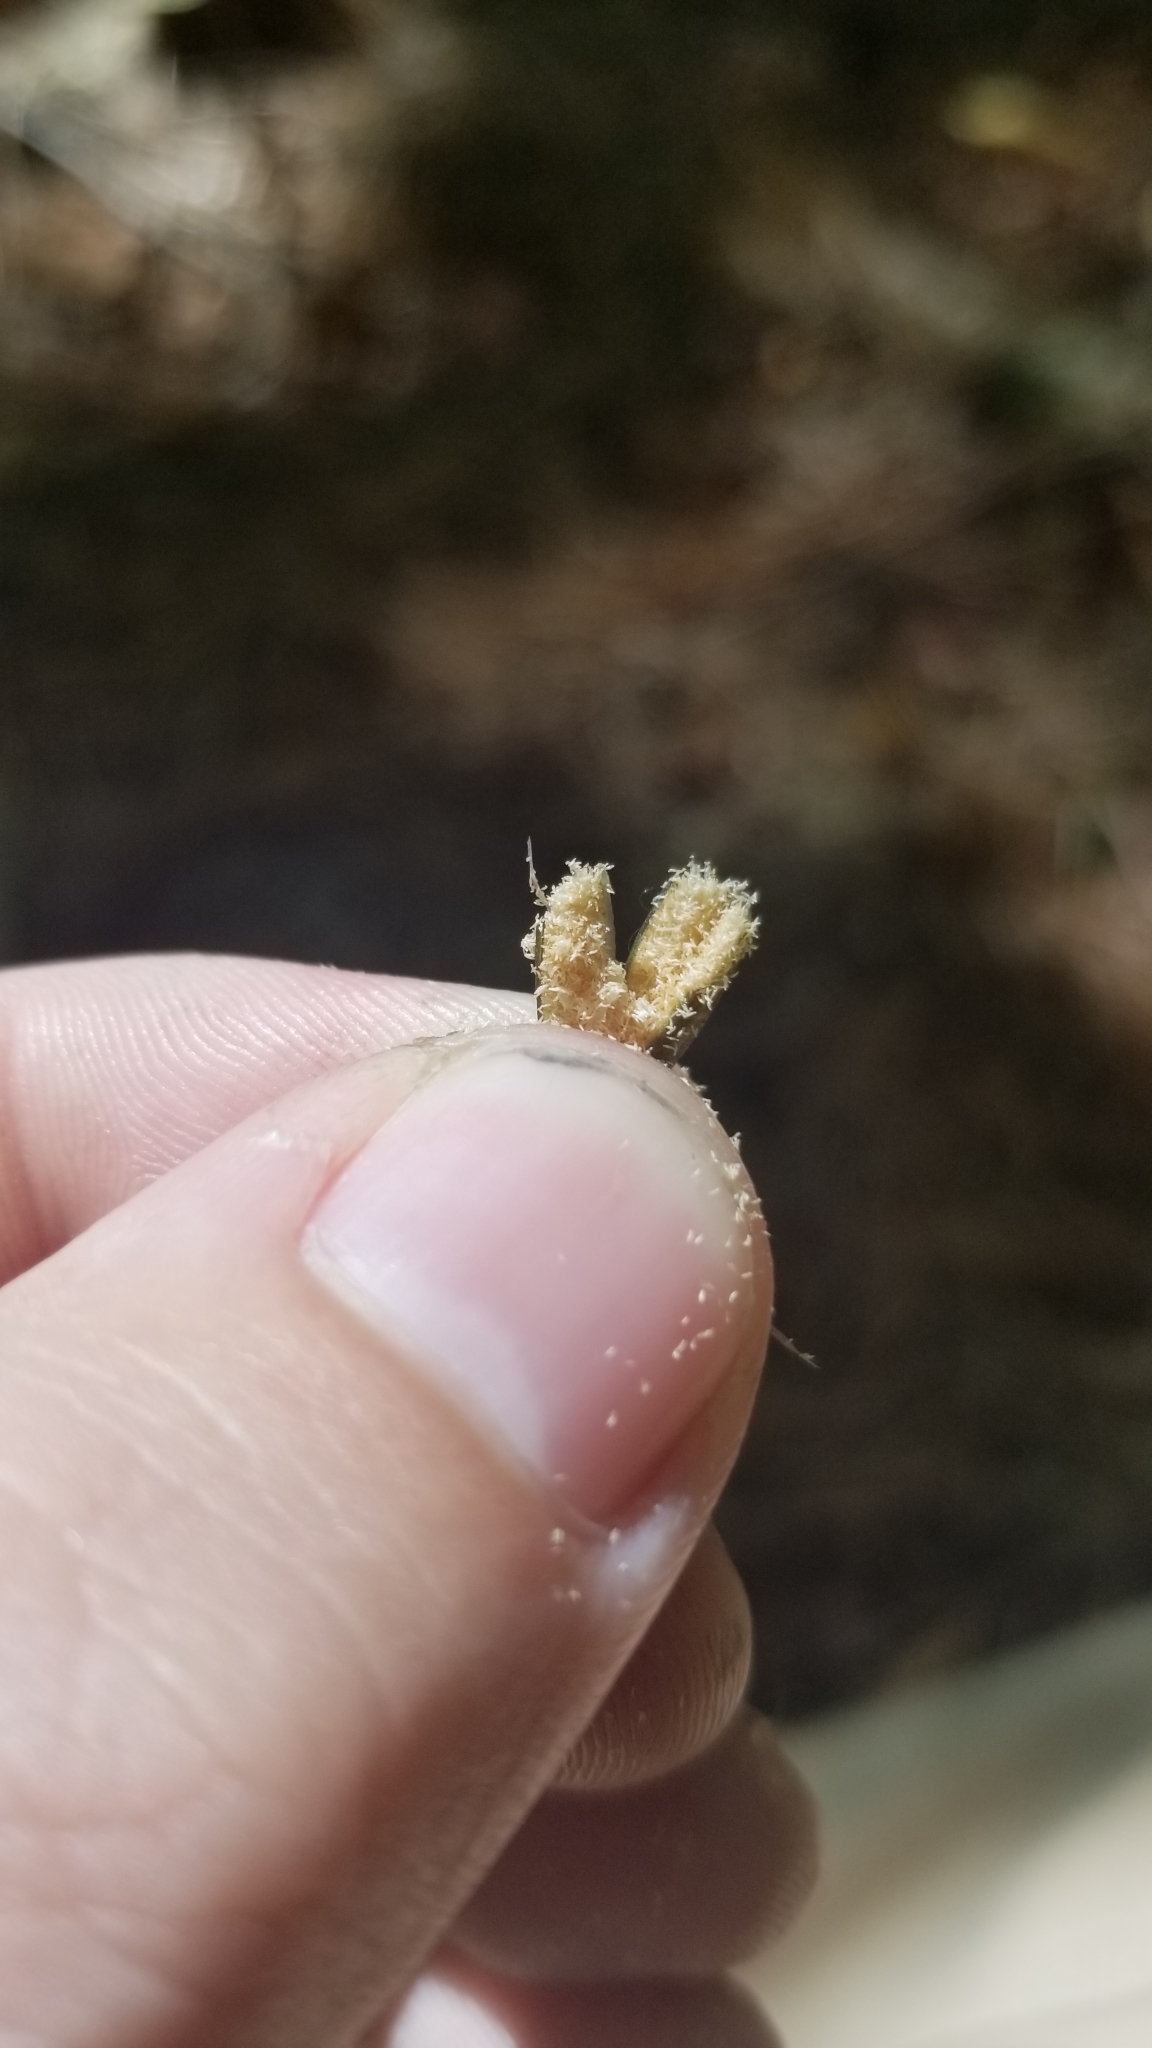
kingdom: Plantae
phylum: Tracheophyta
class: Liliopsida
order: Asparagales
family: Orchidaceae
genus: Tipularia
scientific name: Tipularia discolor
